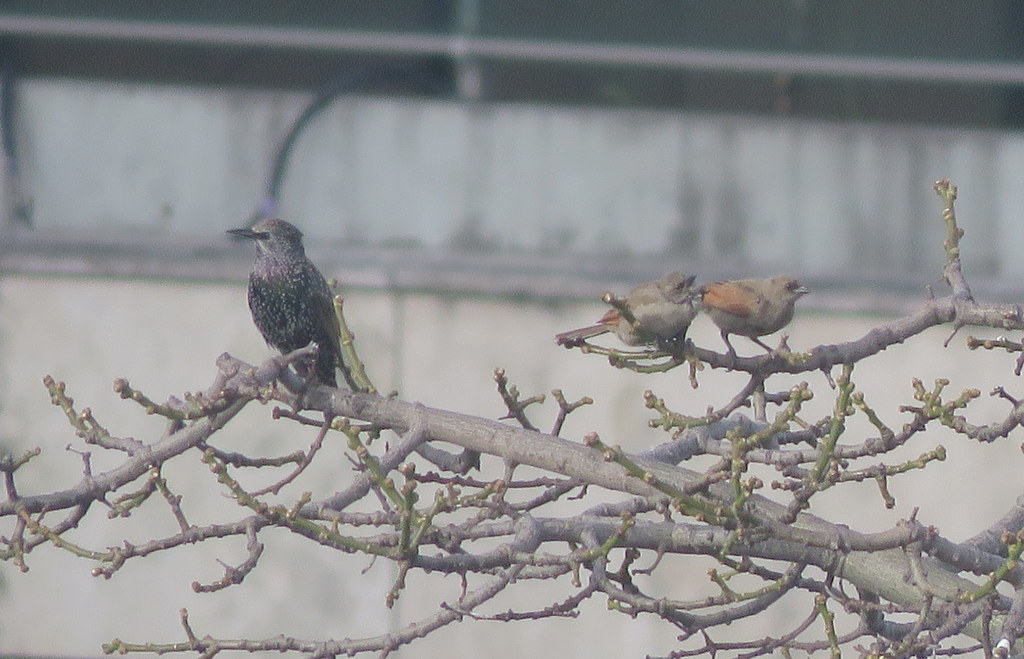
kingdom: Animalia
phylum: Chordata
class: Aves
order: Passeriformes
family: Icteridae
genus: Agelaioides
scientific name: Agelaioides badius
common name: Baywing
